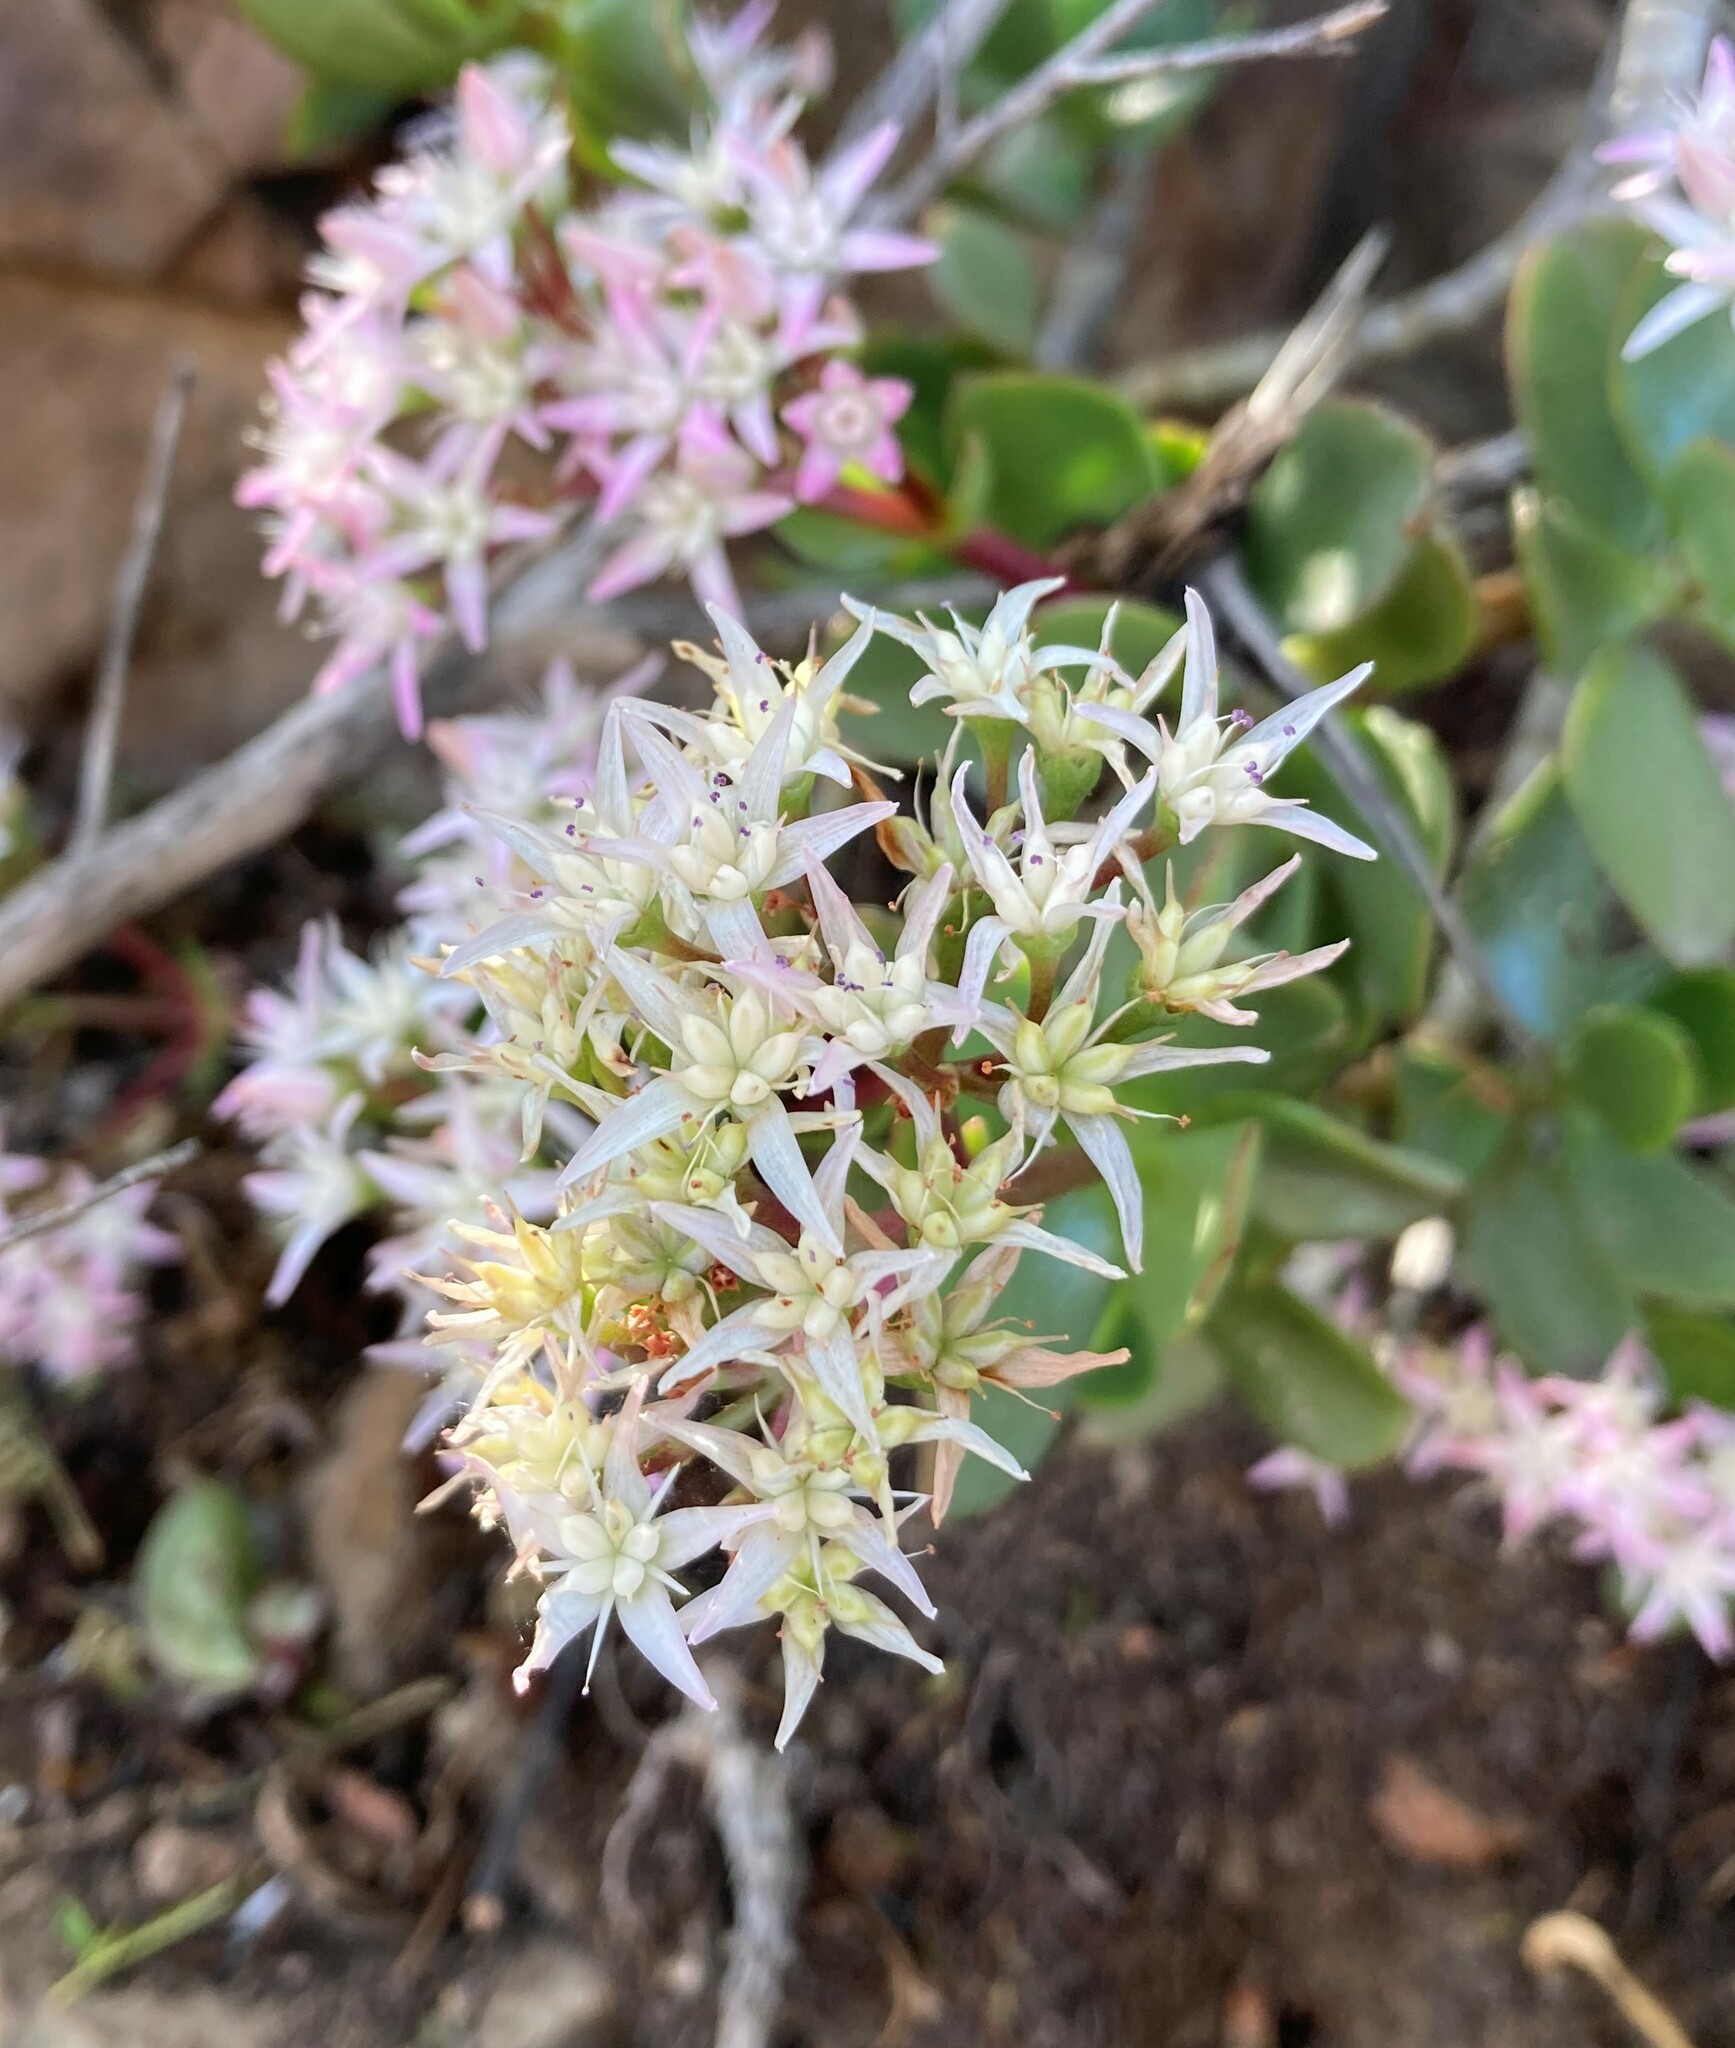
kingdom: Plantae
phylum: Tracheophyta
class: Magnoliopsida
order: Saxifragales
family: Crassulaceae
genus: Crassula
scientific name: Crassula ovata
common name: Jade plant
